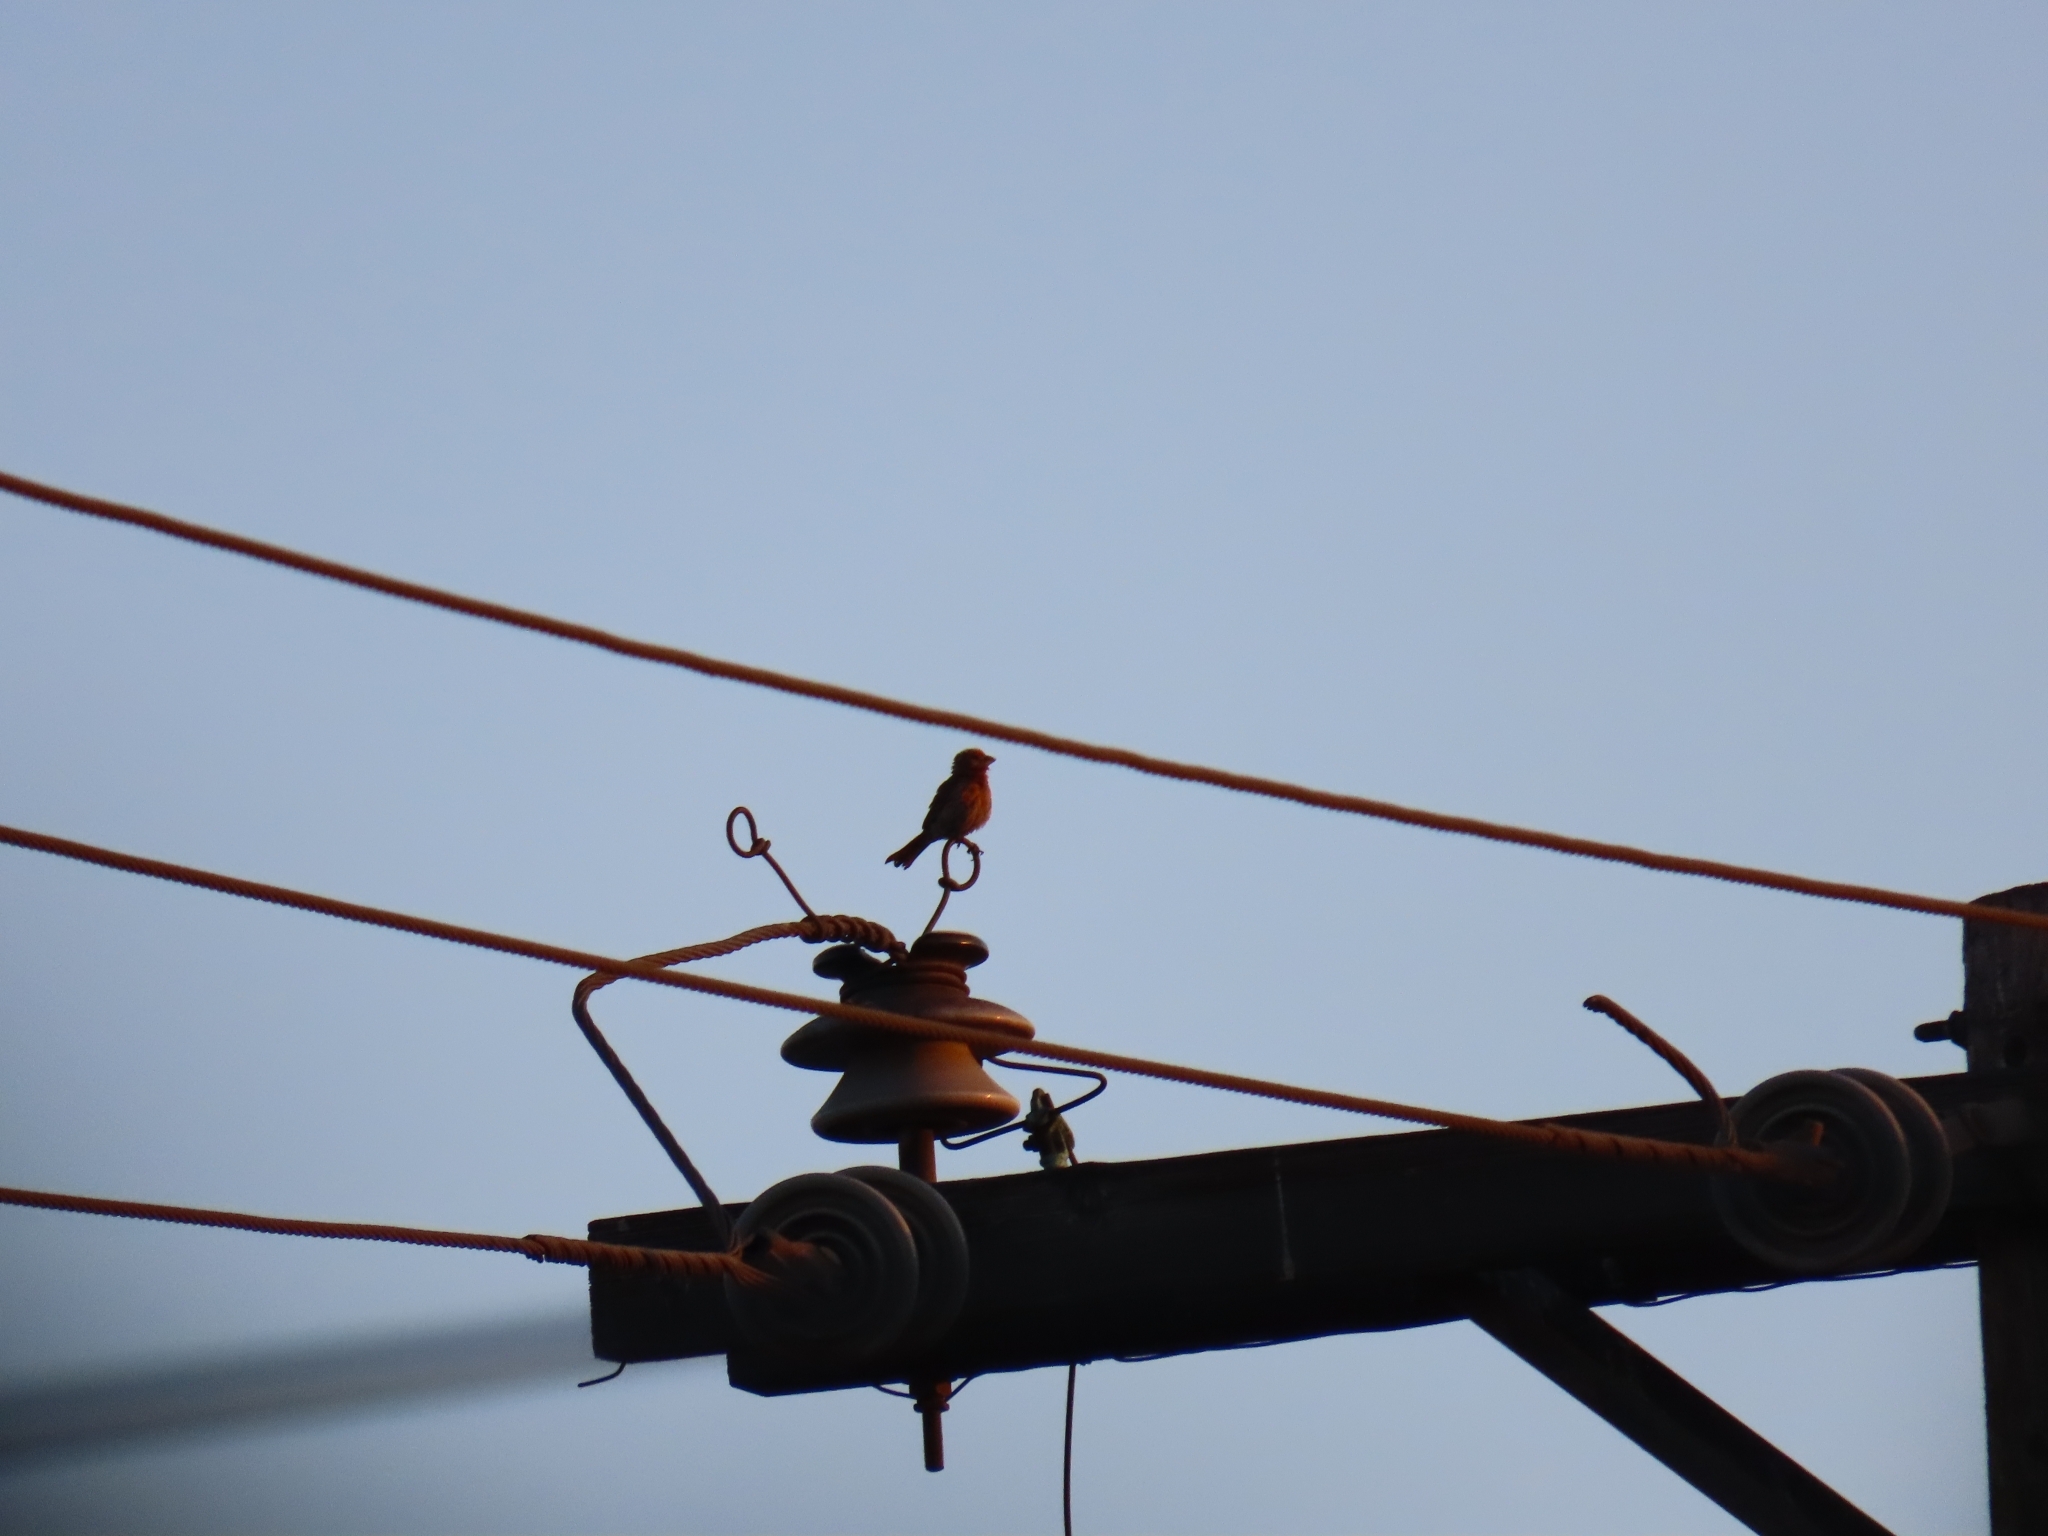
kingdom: Animalia
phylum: Chordata
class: Aves
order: Passeriformes
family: Fringillidae
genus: Haemorhous
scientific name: Haemorhous mexicanus
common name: House finch
